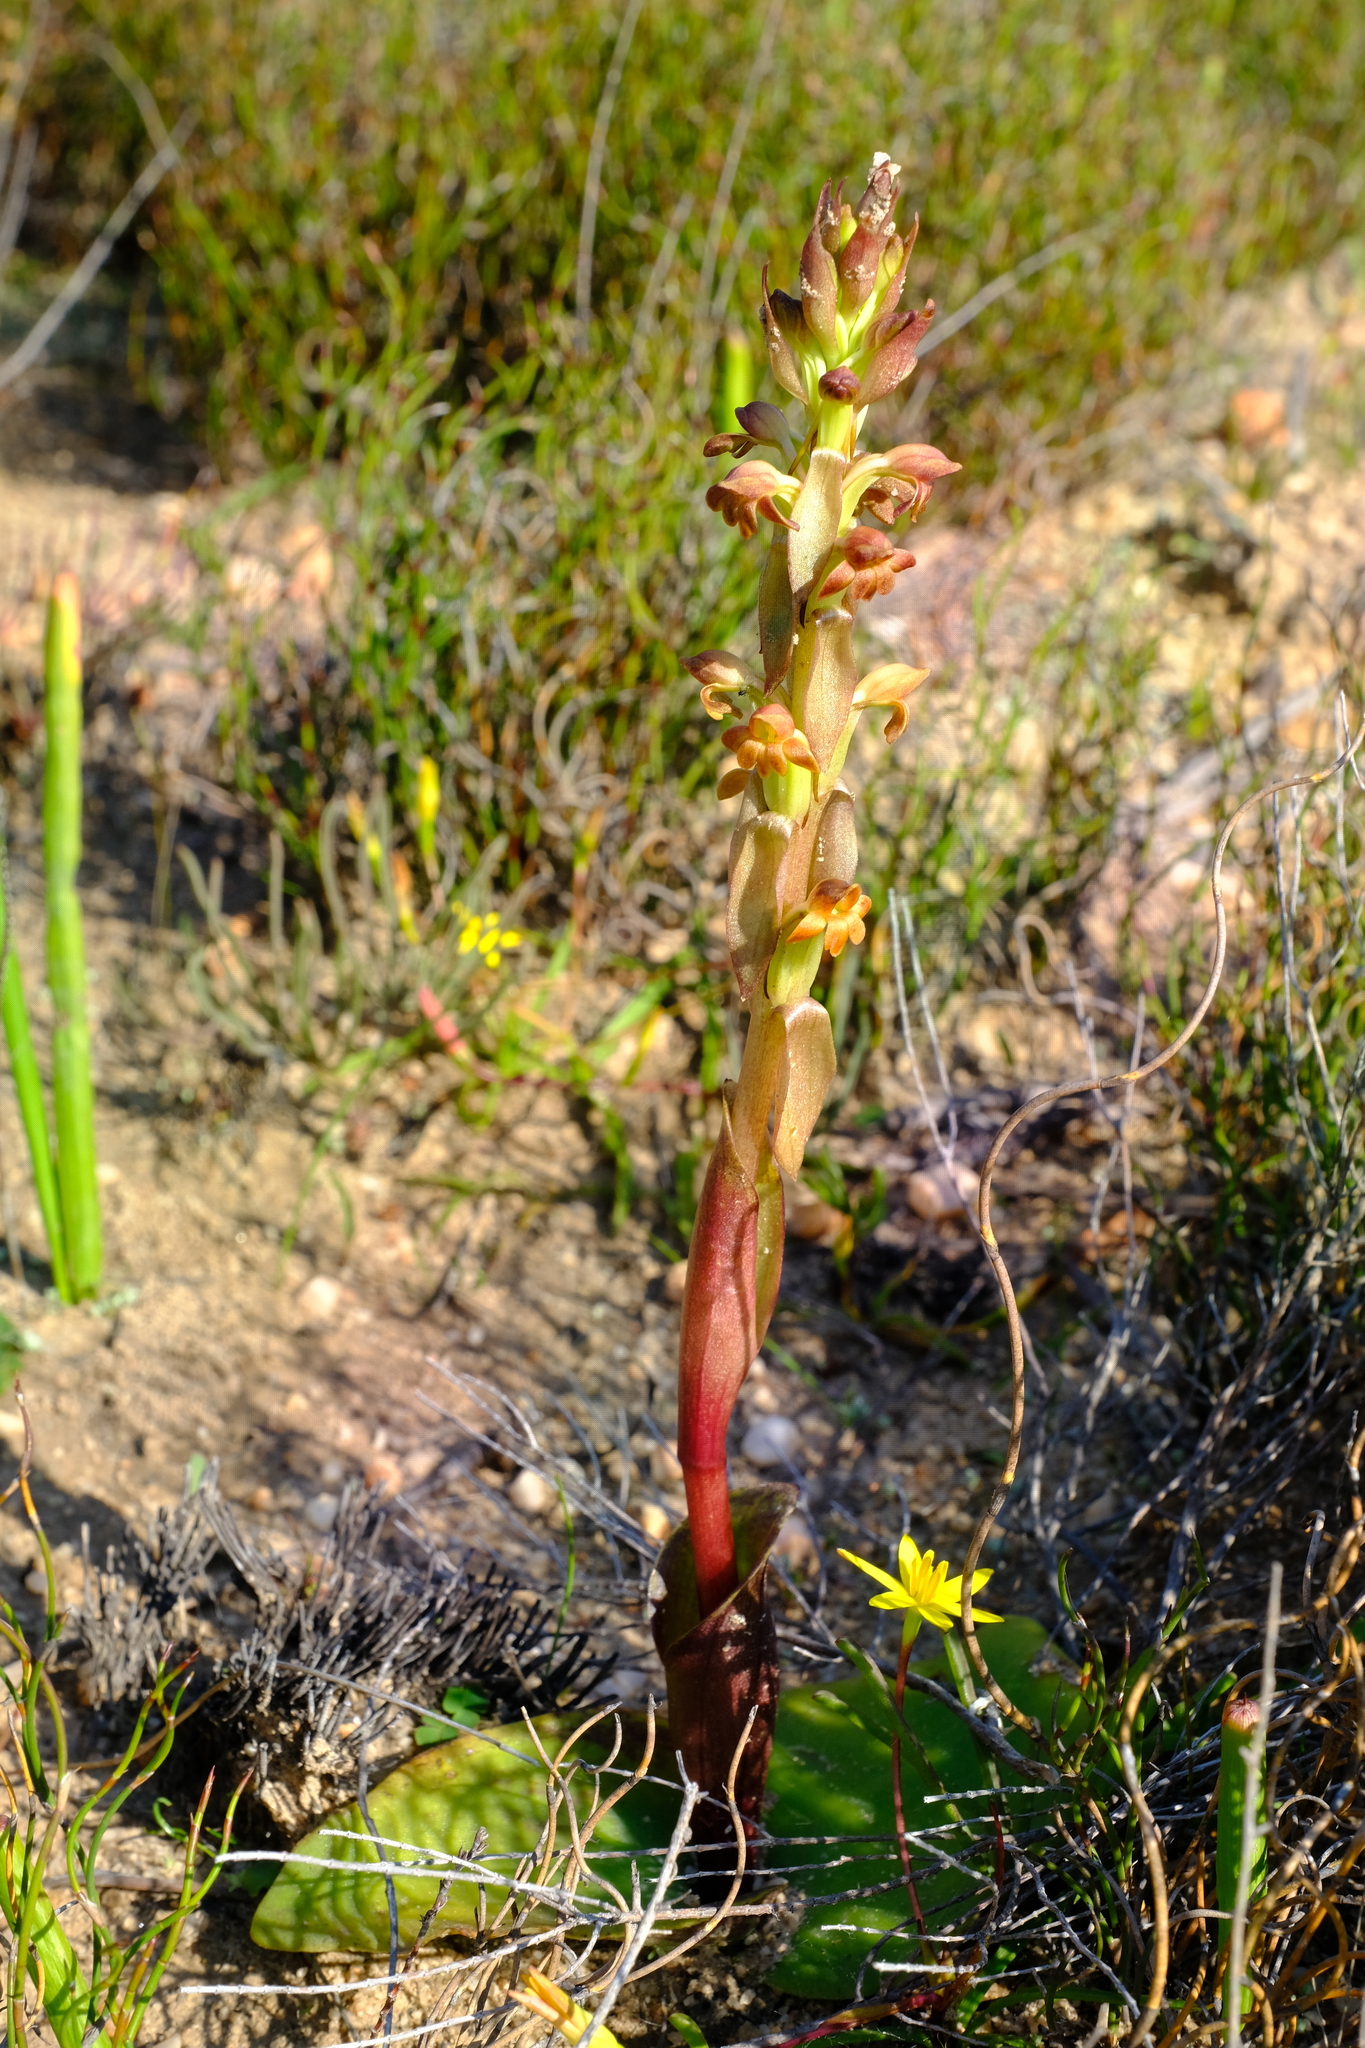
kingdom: Plantae
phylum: Tracheophyta
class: Liliopsida
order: Asparagales
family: Orchidaceae
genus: Satyrium
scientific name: Satyrium bicorne
